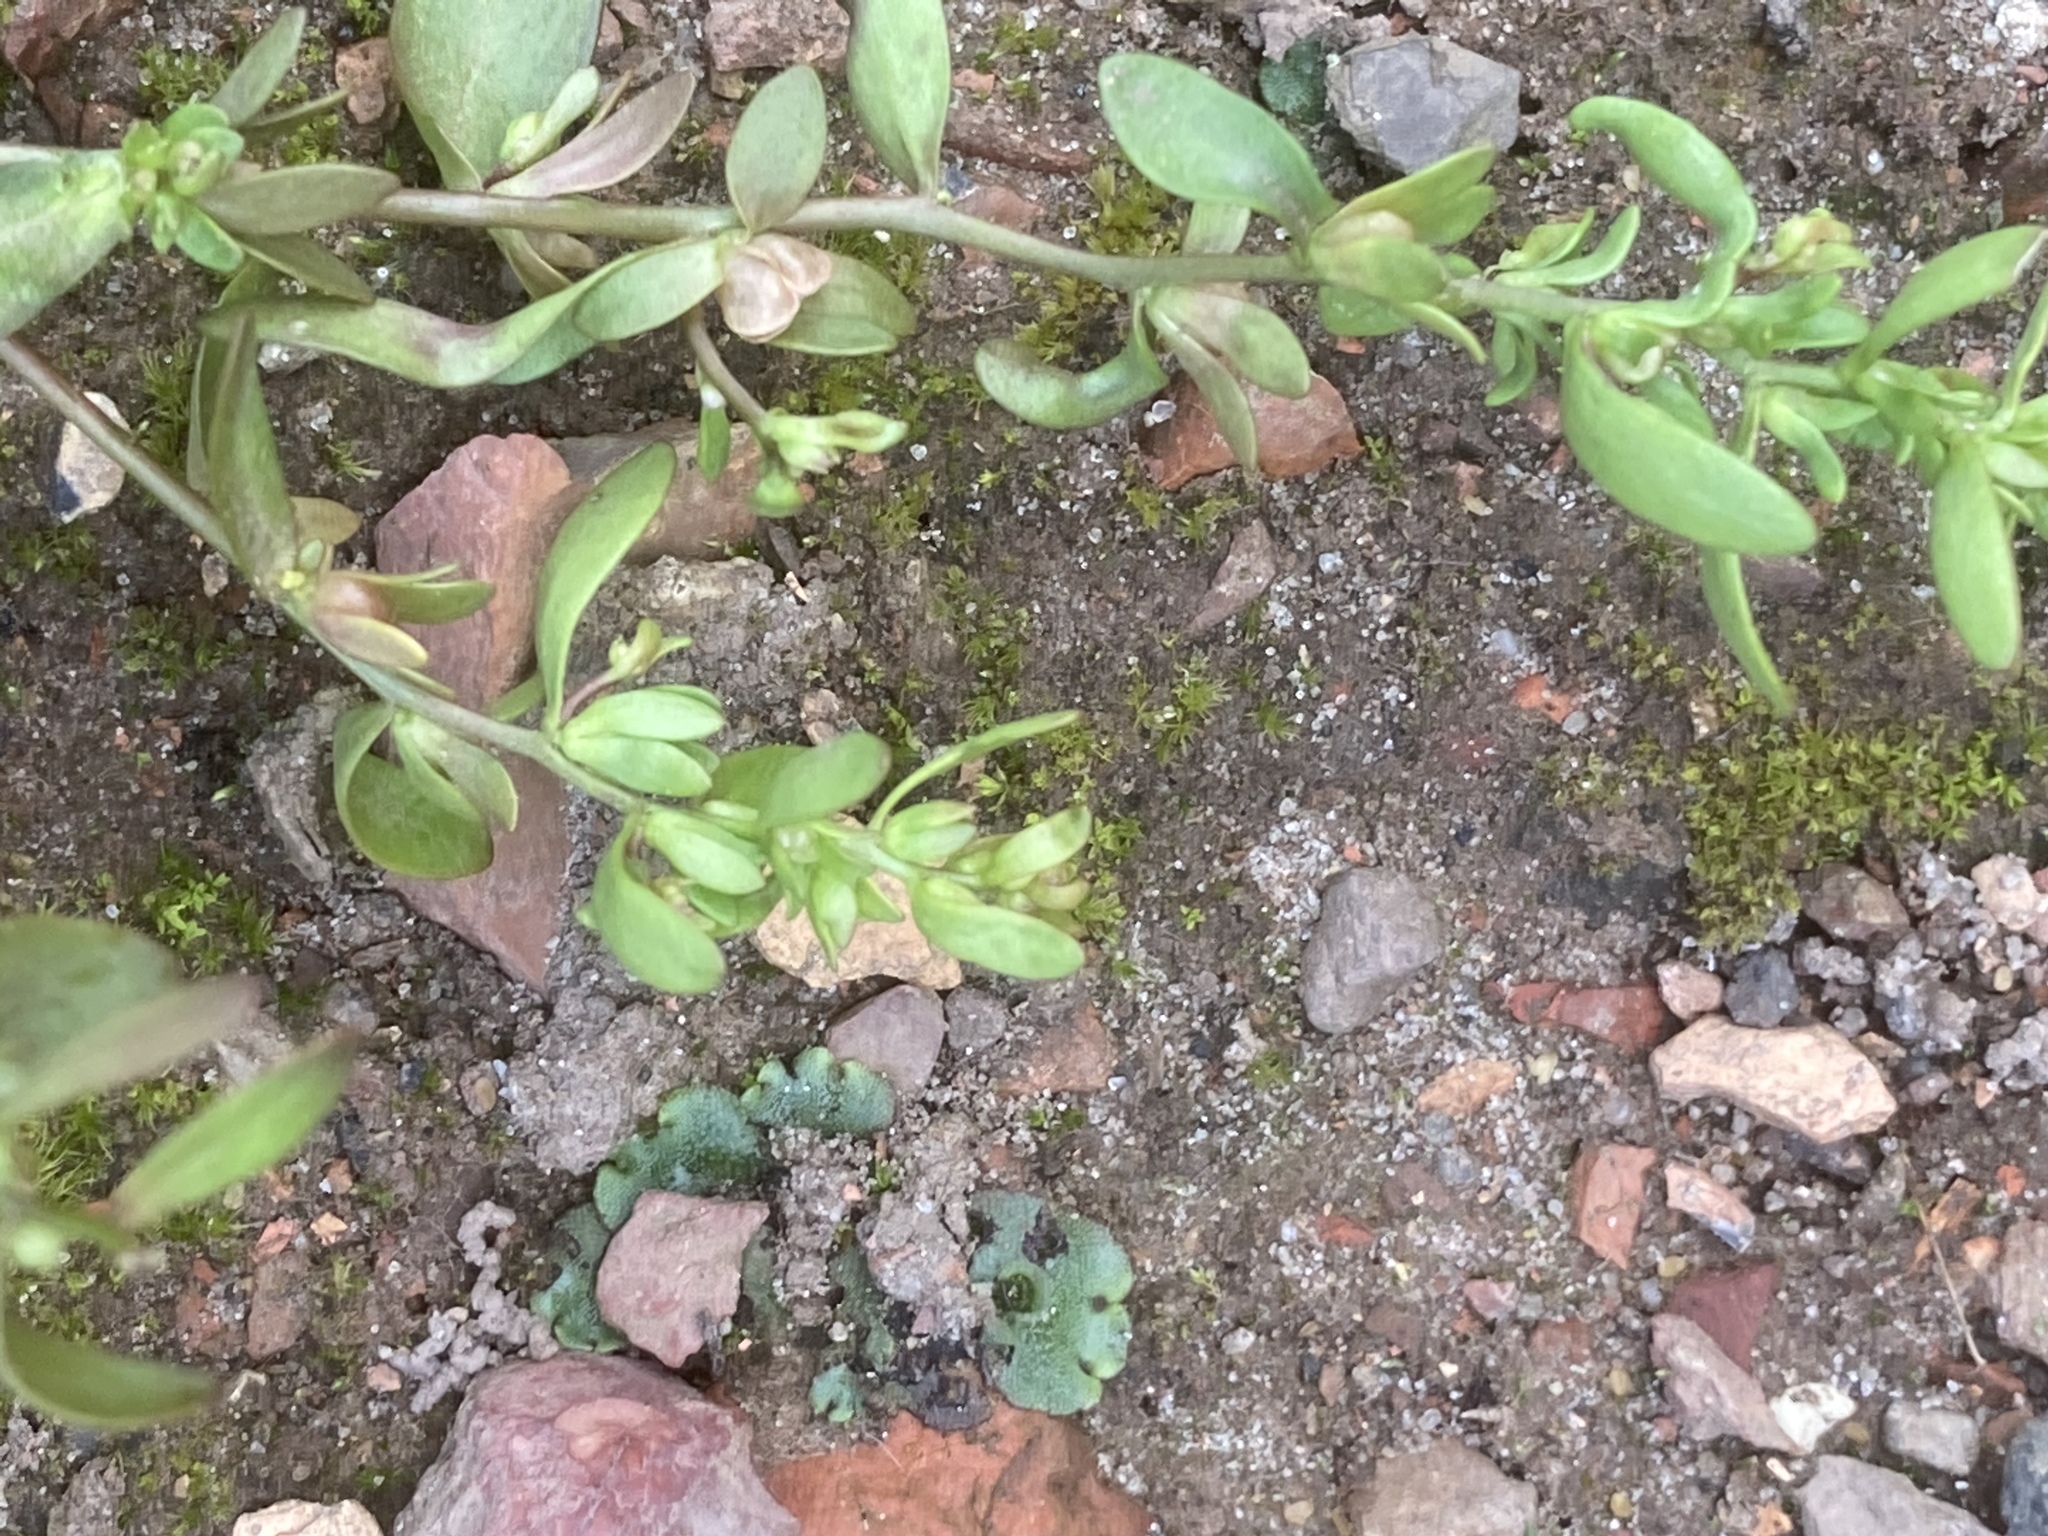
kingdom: Plantae
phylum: Tracheophyta
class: Magnoliopsida
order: Lamiales
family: Plantaginaceae
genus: Veronica
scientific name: Veronica peregrina
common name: Neckweed
